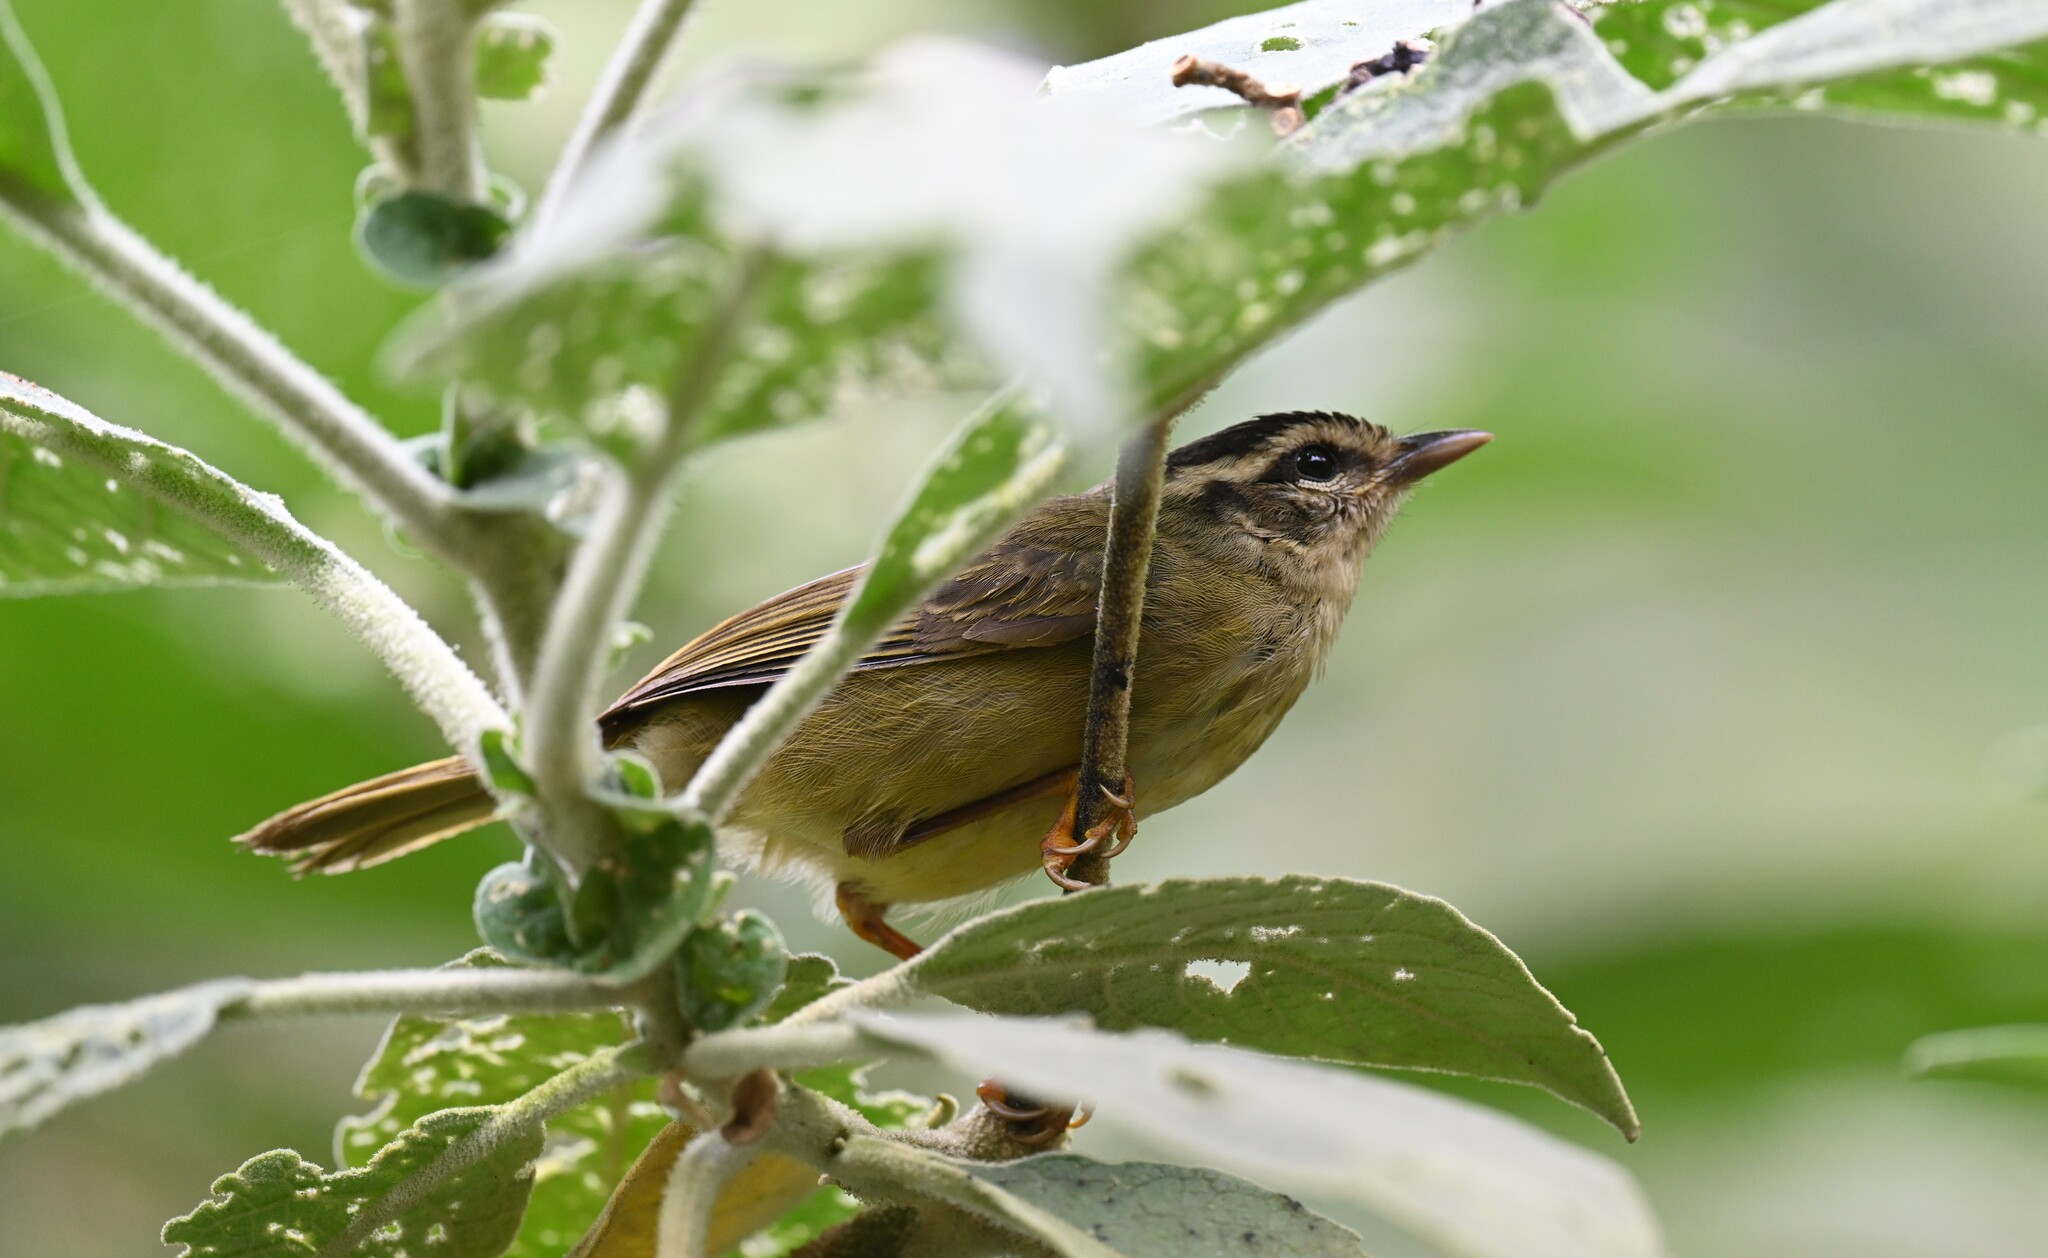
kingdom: Animalia
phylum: Chordata
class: Aves
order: Passeriformes
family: Parulidae
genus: Basileuterus
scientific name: Basileuterus tristriatus
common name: Three-striped warbler
